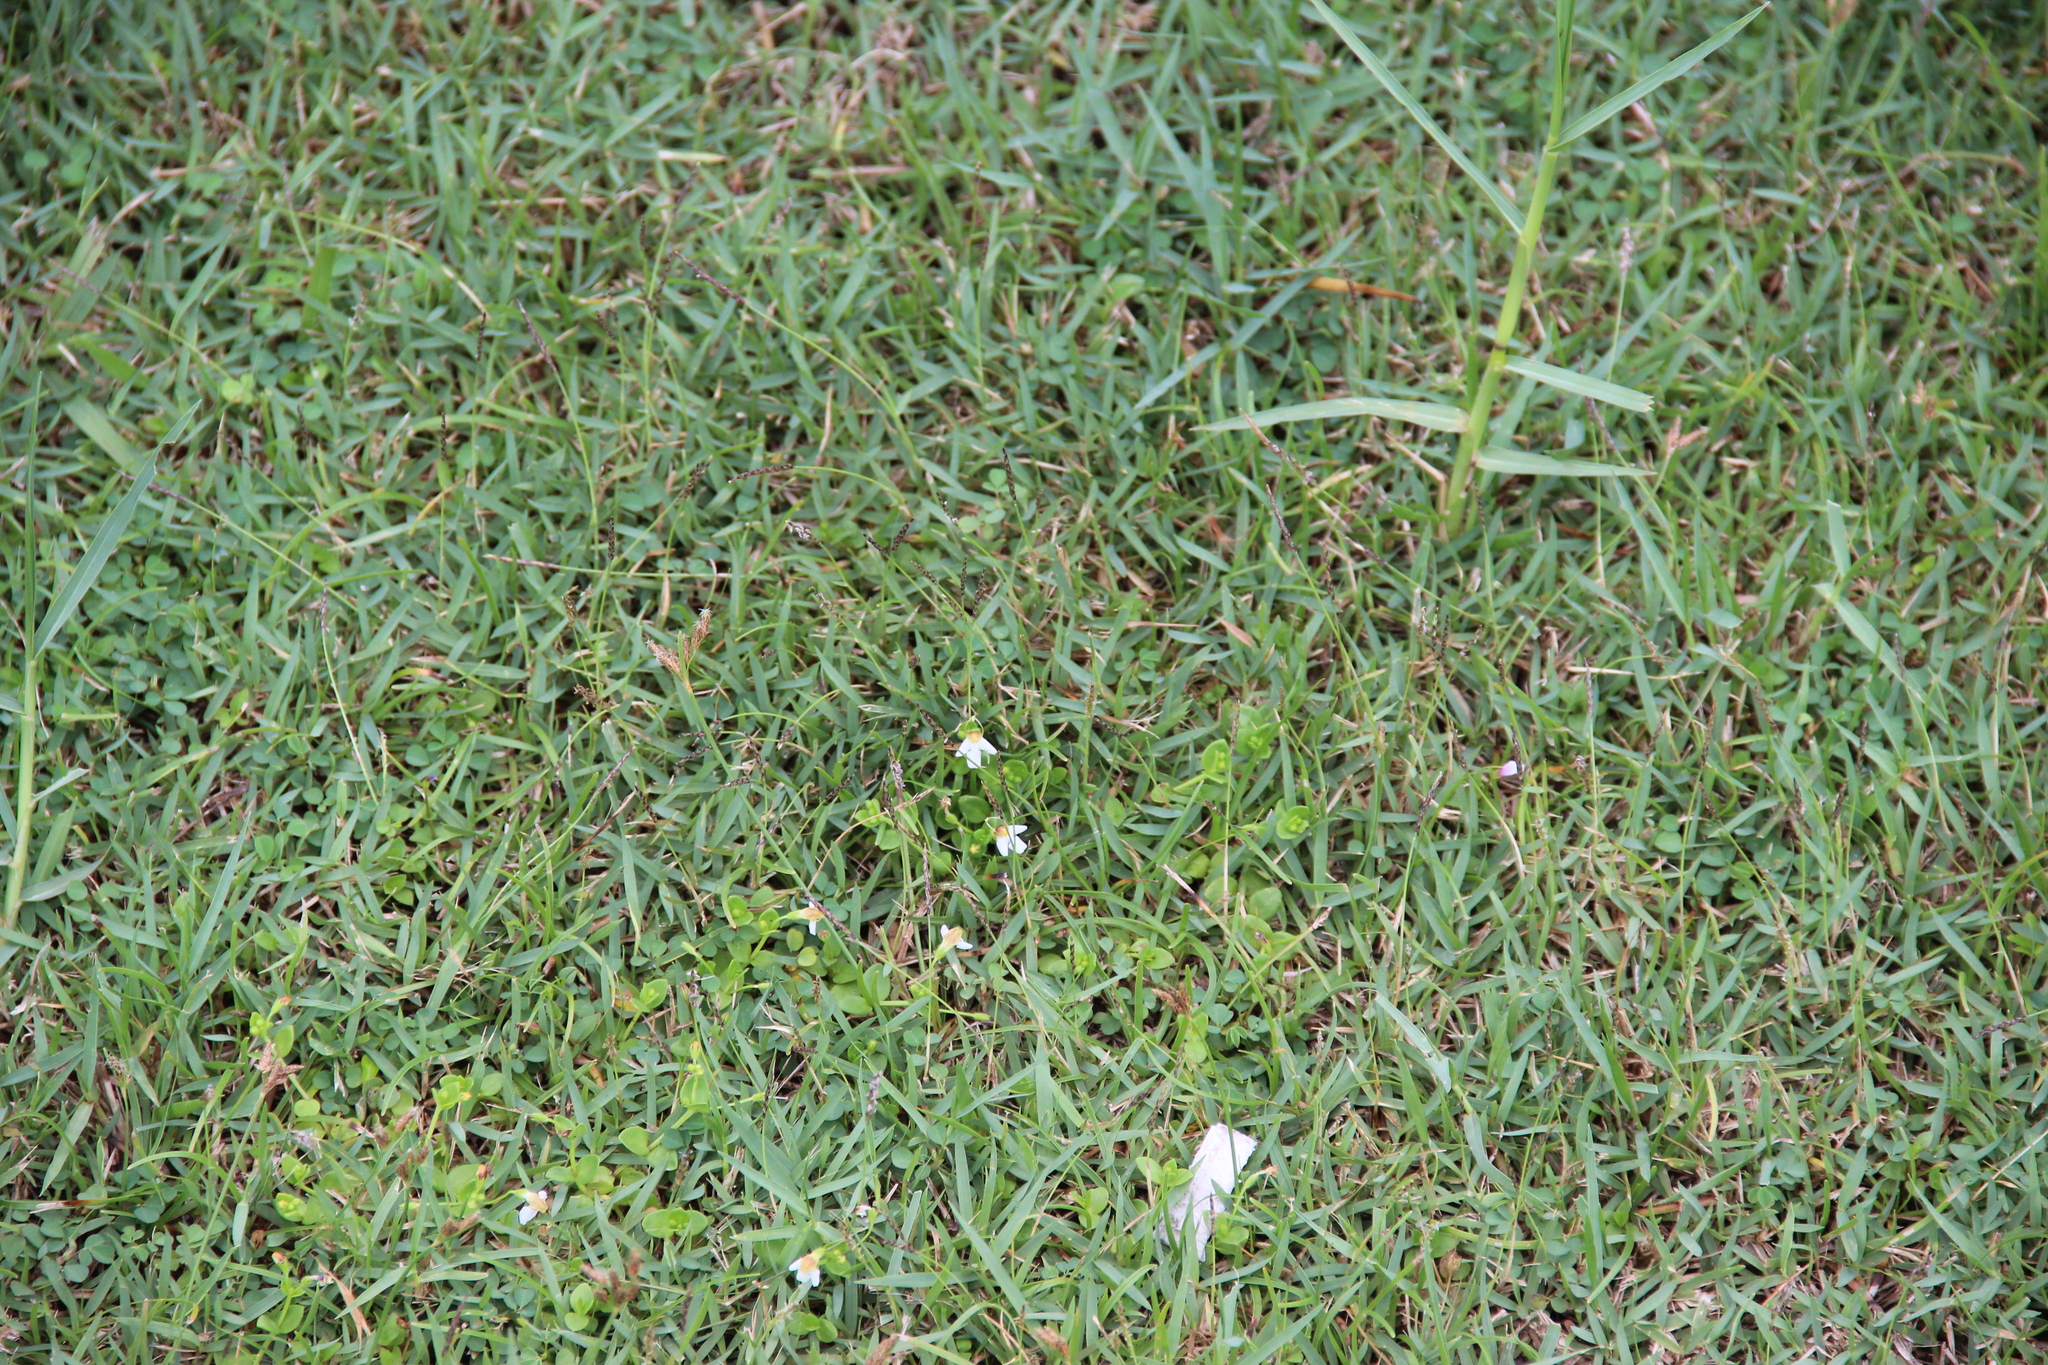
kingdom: Plantae
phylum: Tracheophyta
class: Magnoliopsida
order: Lamiales
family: Linderniaceae
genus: Yamazakia
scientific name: Yamazakia pusilla
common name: Tiny slitwort
